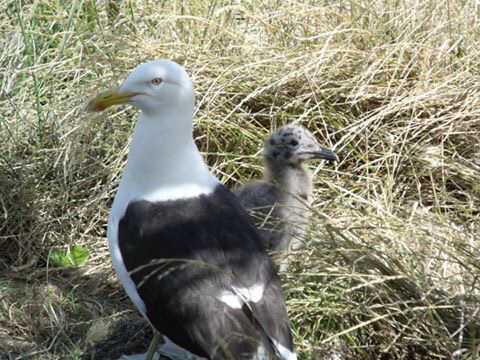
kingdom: Animalia
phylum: Chordata
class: Aves
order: Charadriiformes
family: Laridae
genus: Larus
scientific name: Larus dominicanus
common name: Kelp gull
